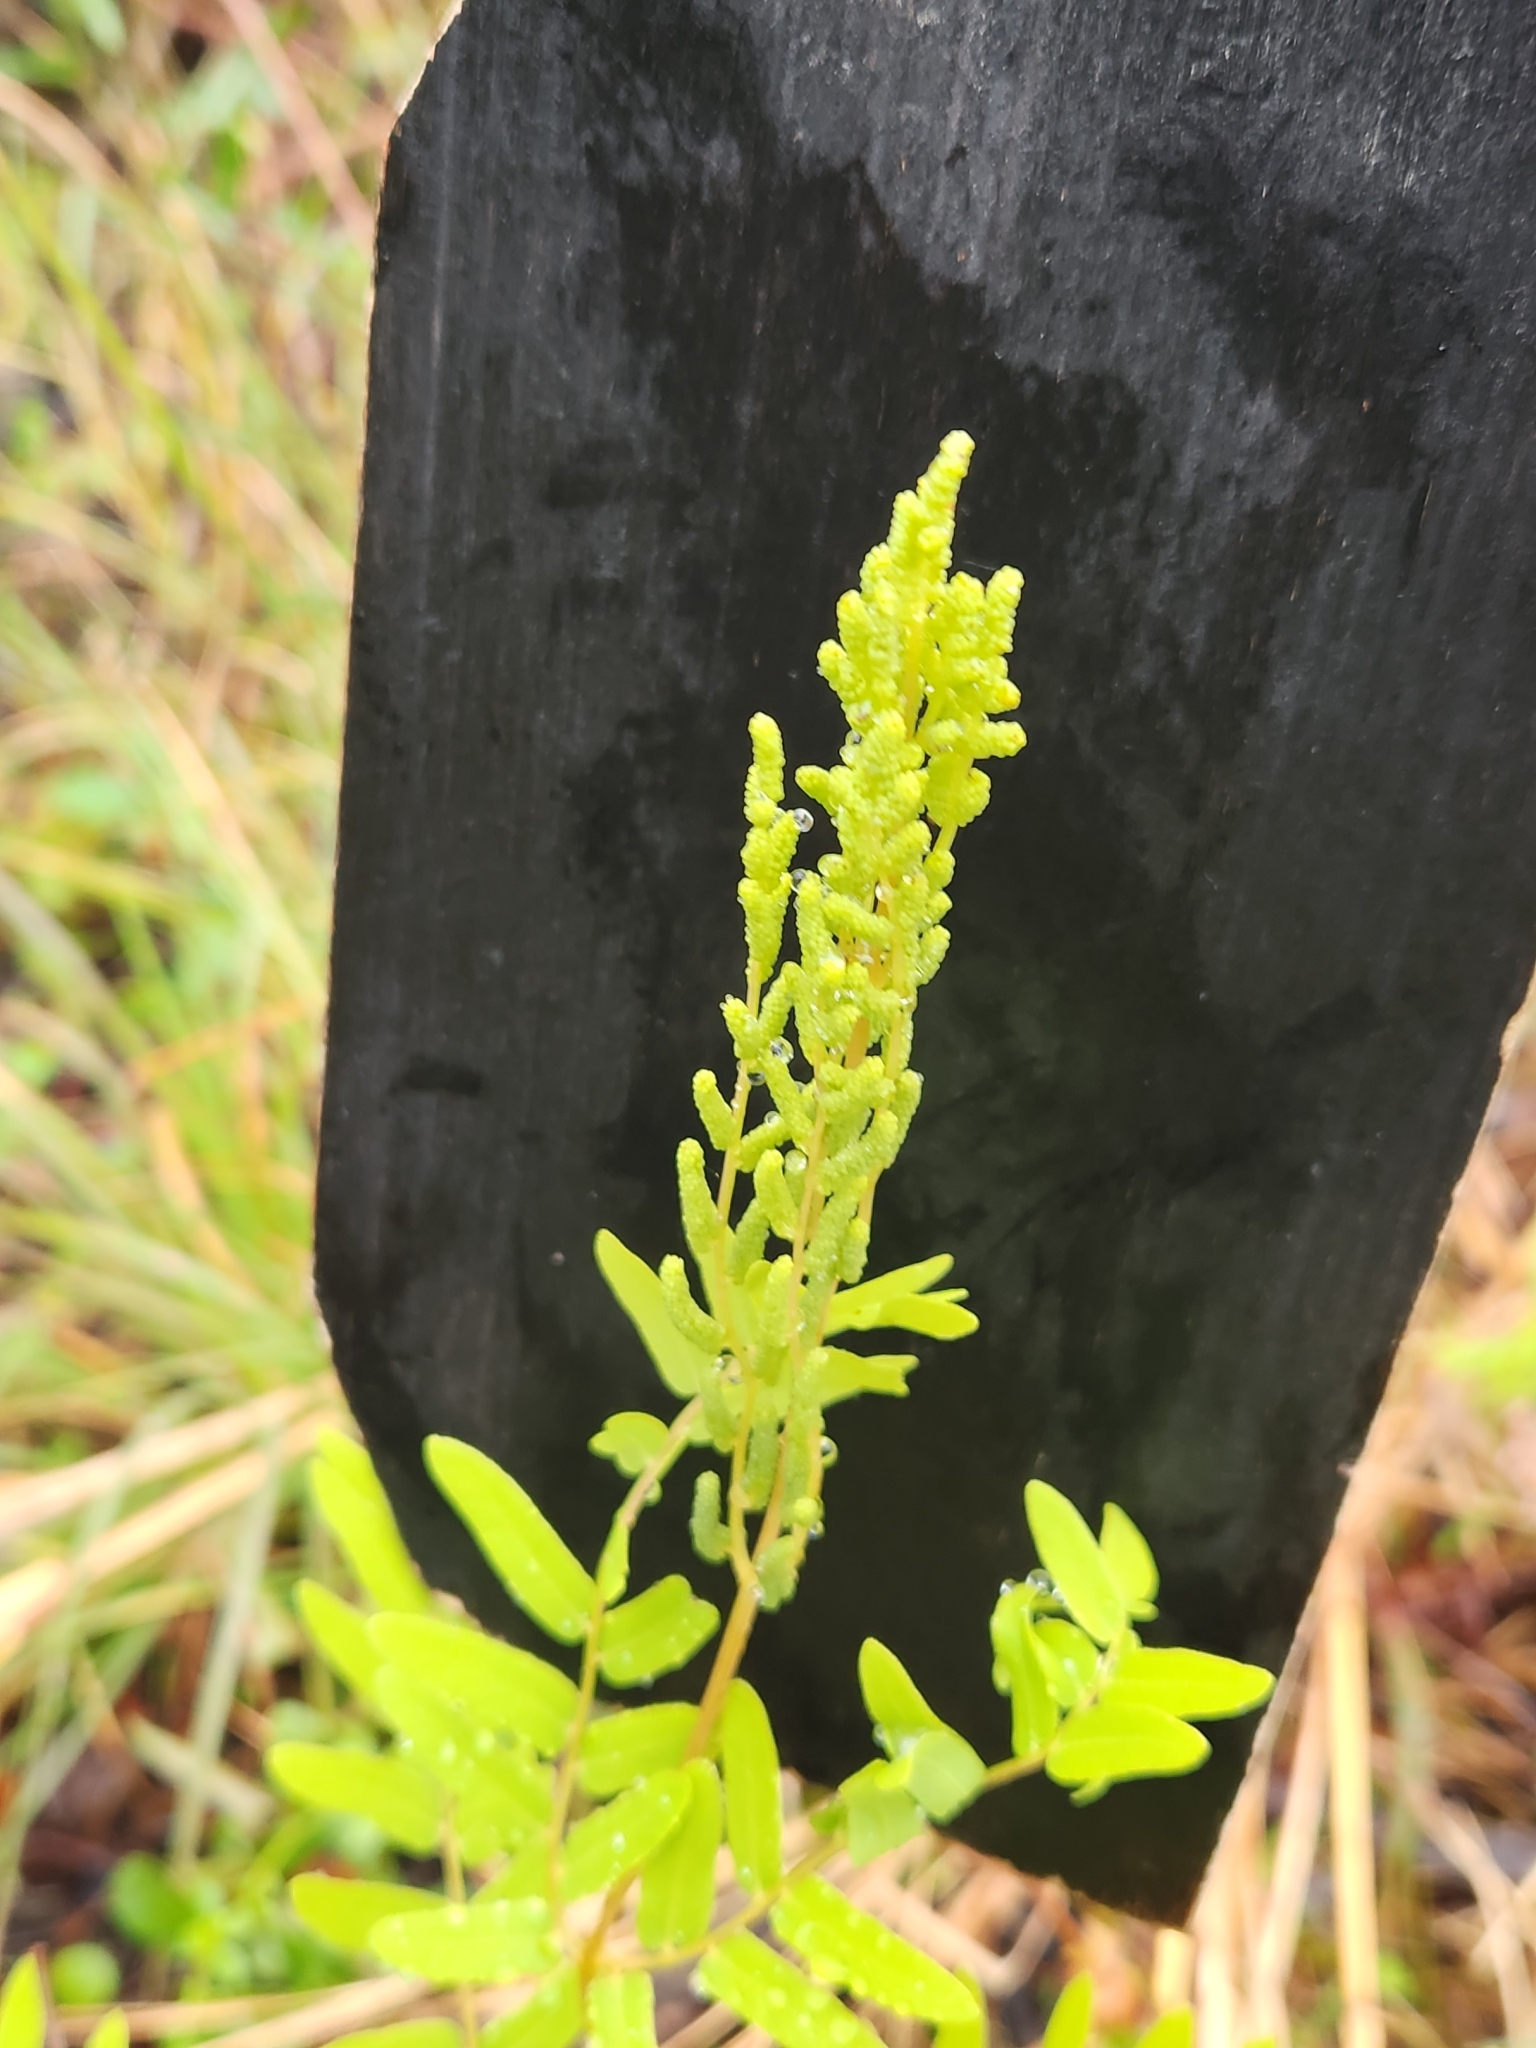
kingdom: Plantae
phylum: Tracheophyta
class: Polypodiopsida
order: Osmundales
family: Osmundaceae
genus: Osmunda
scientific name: Osmunda spectabilis
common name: American royal fern
